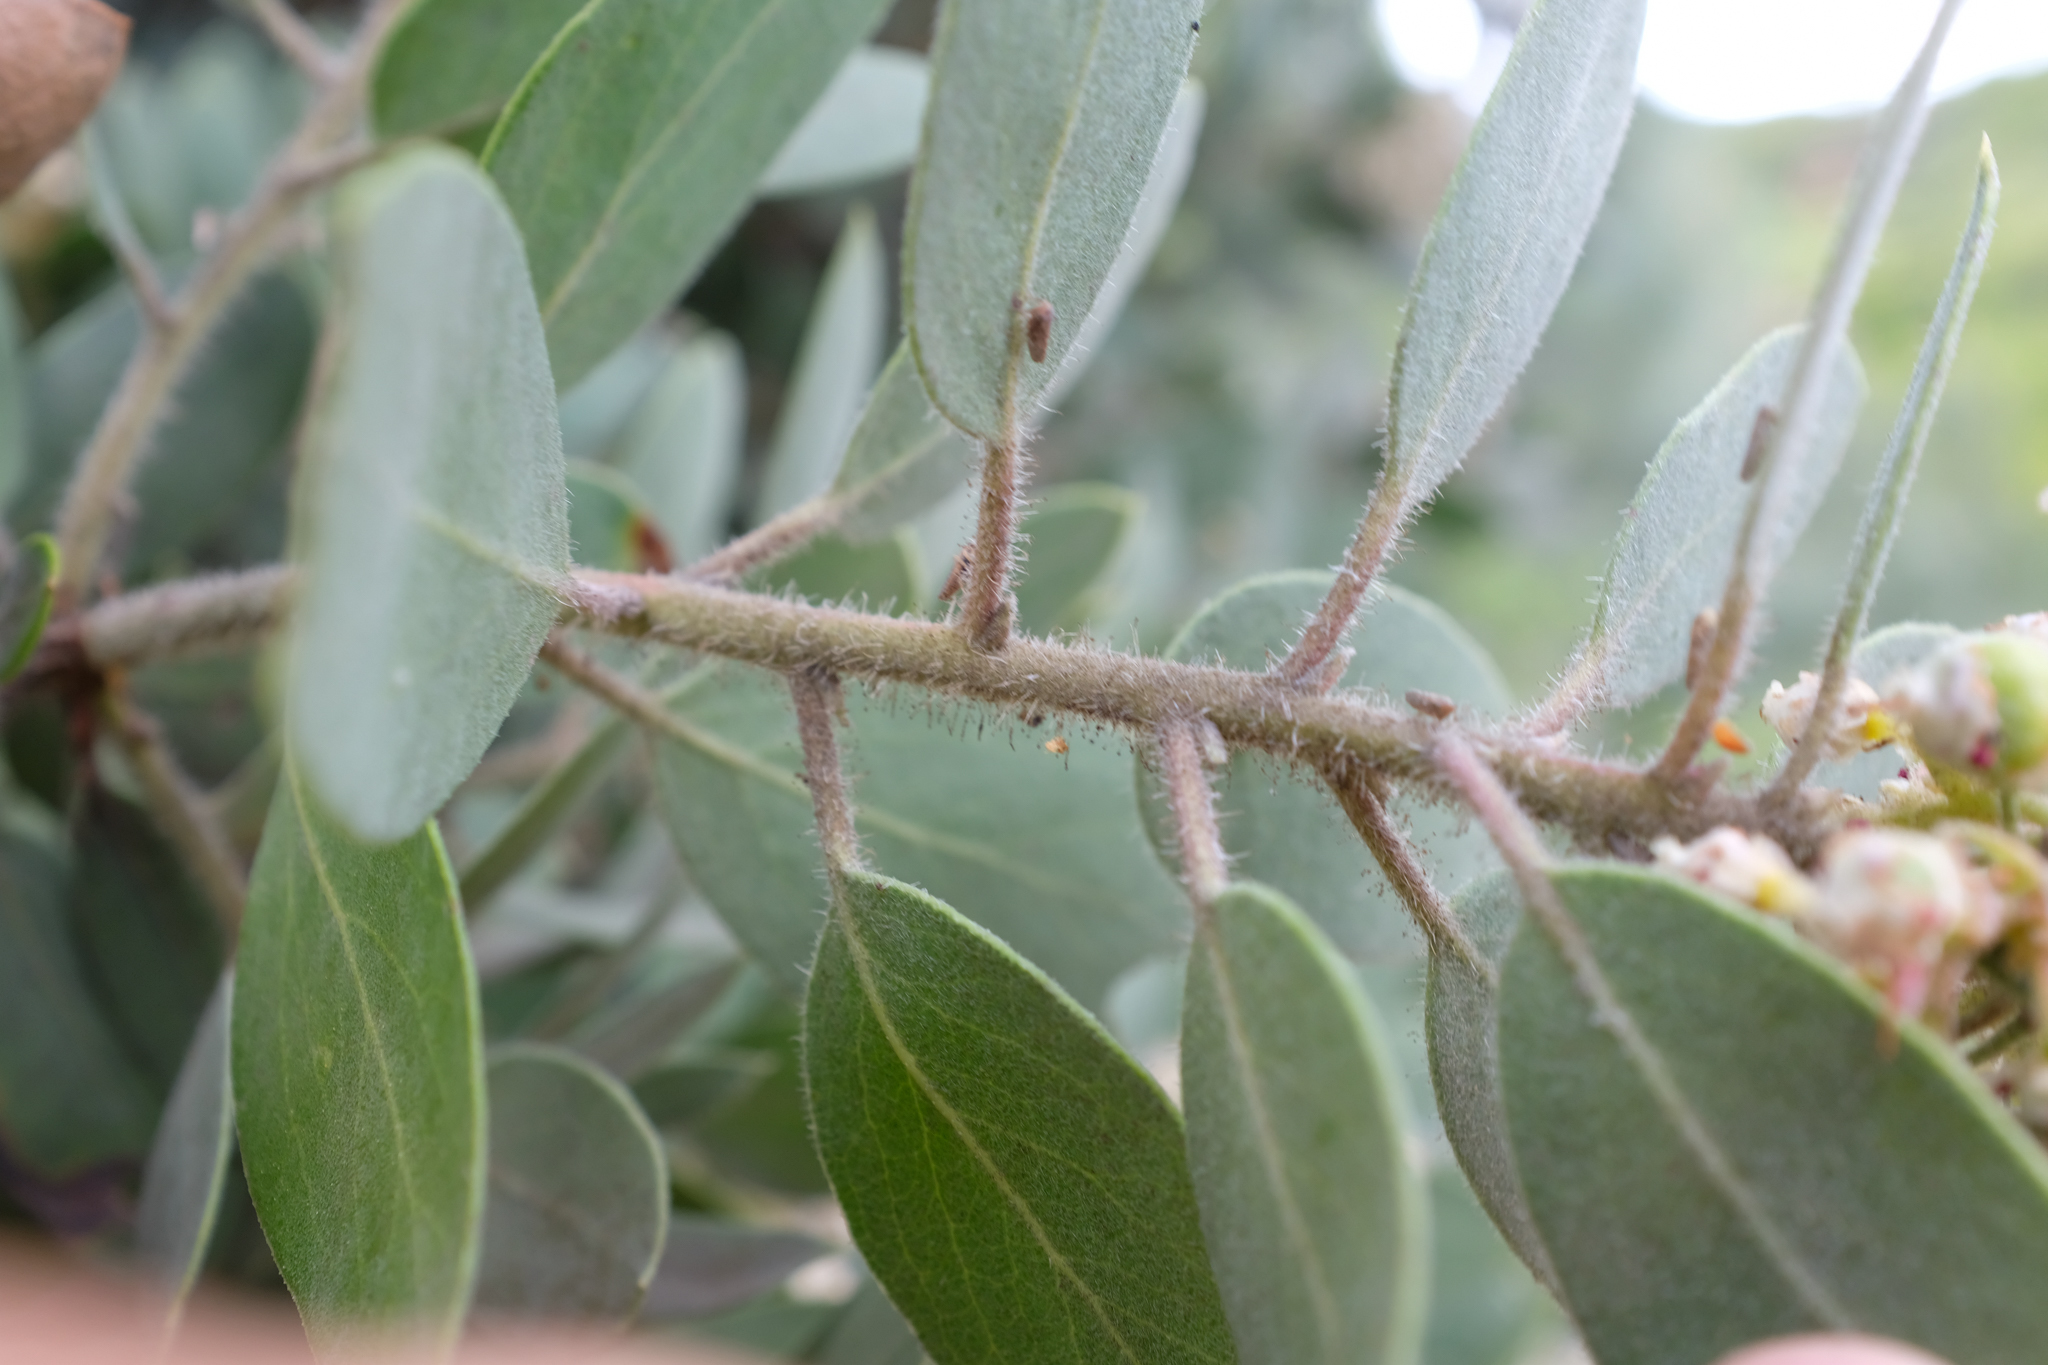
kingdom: Plantae
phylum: Tracheophyta
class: Magnoliopsida
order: Ericales
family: Ericaceae
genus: Arctostaphylos
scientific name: Arctostaphylos glandulosa
